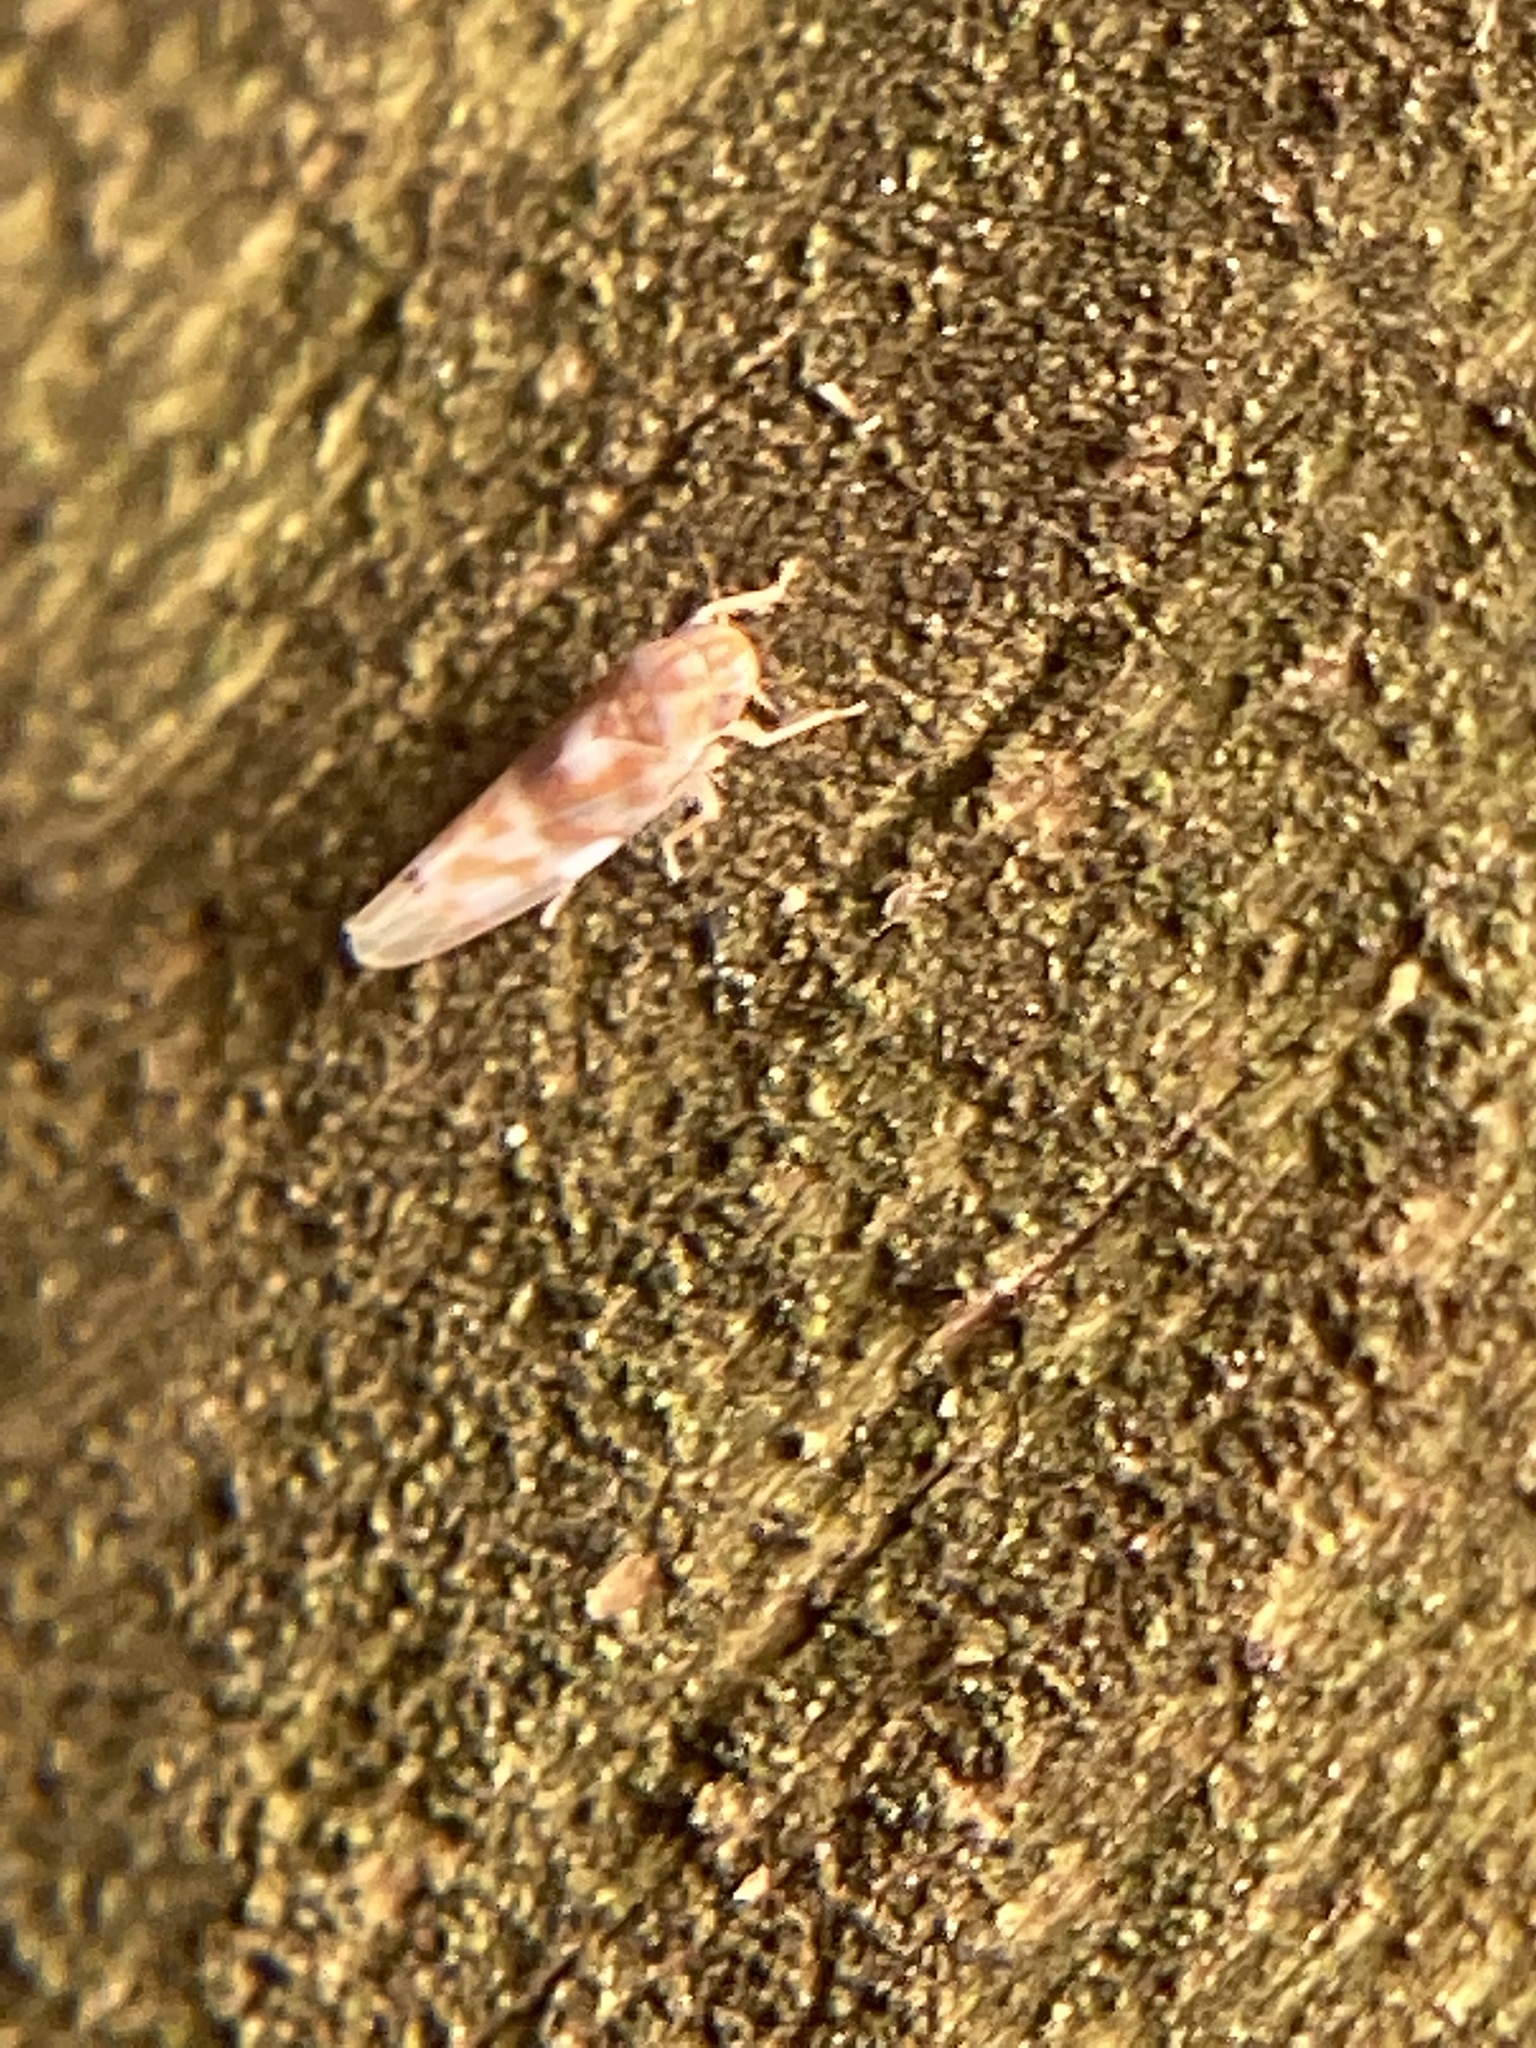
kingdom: Animalia
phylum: Arthropoda
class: Insecta
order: Hemiptera
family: Cicadellidae
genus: Eratoneura
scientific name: Eratoneura affinis
